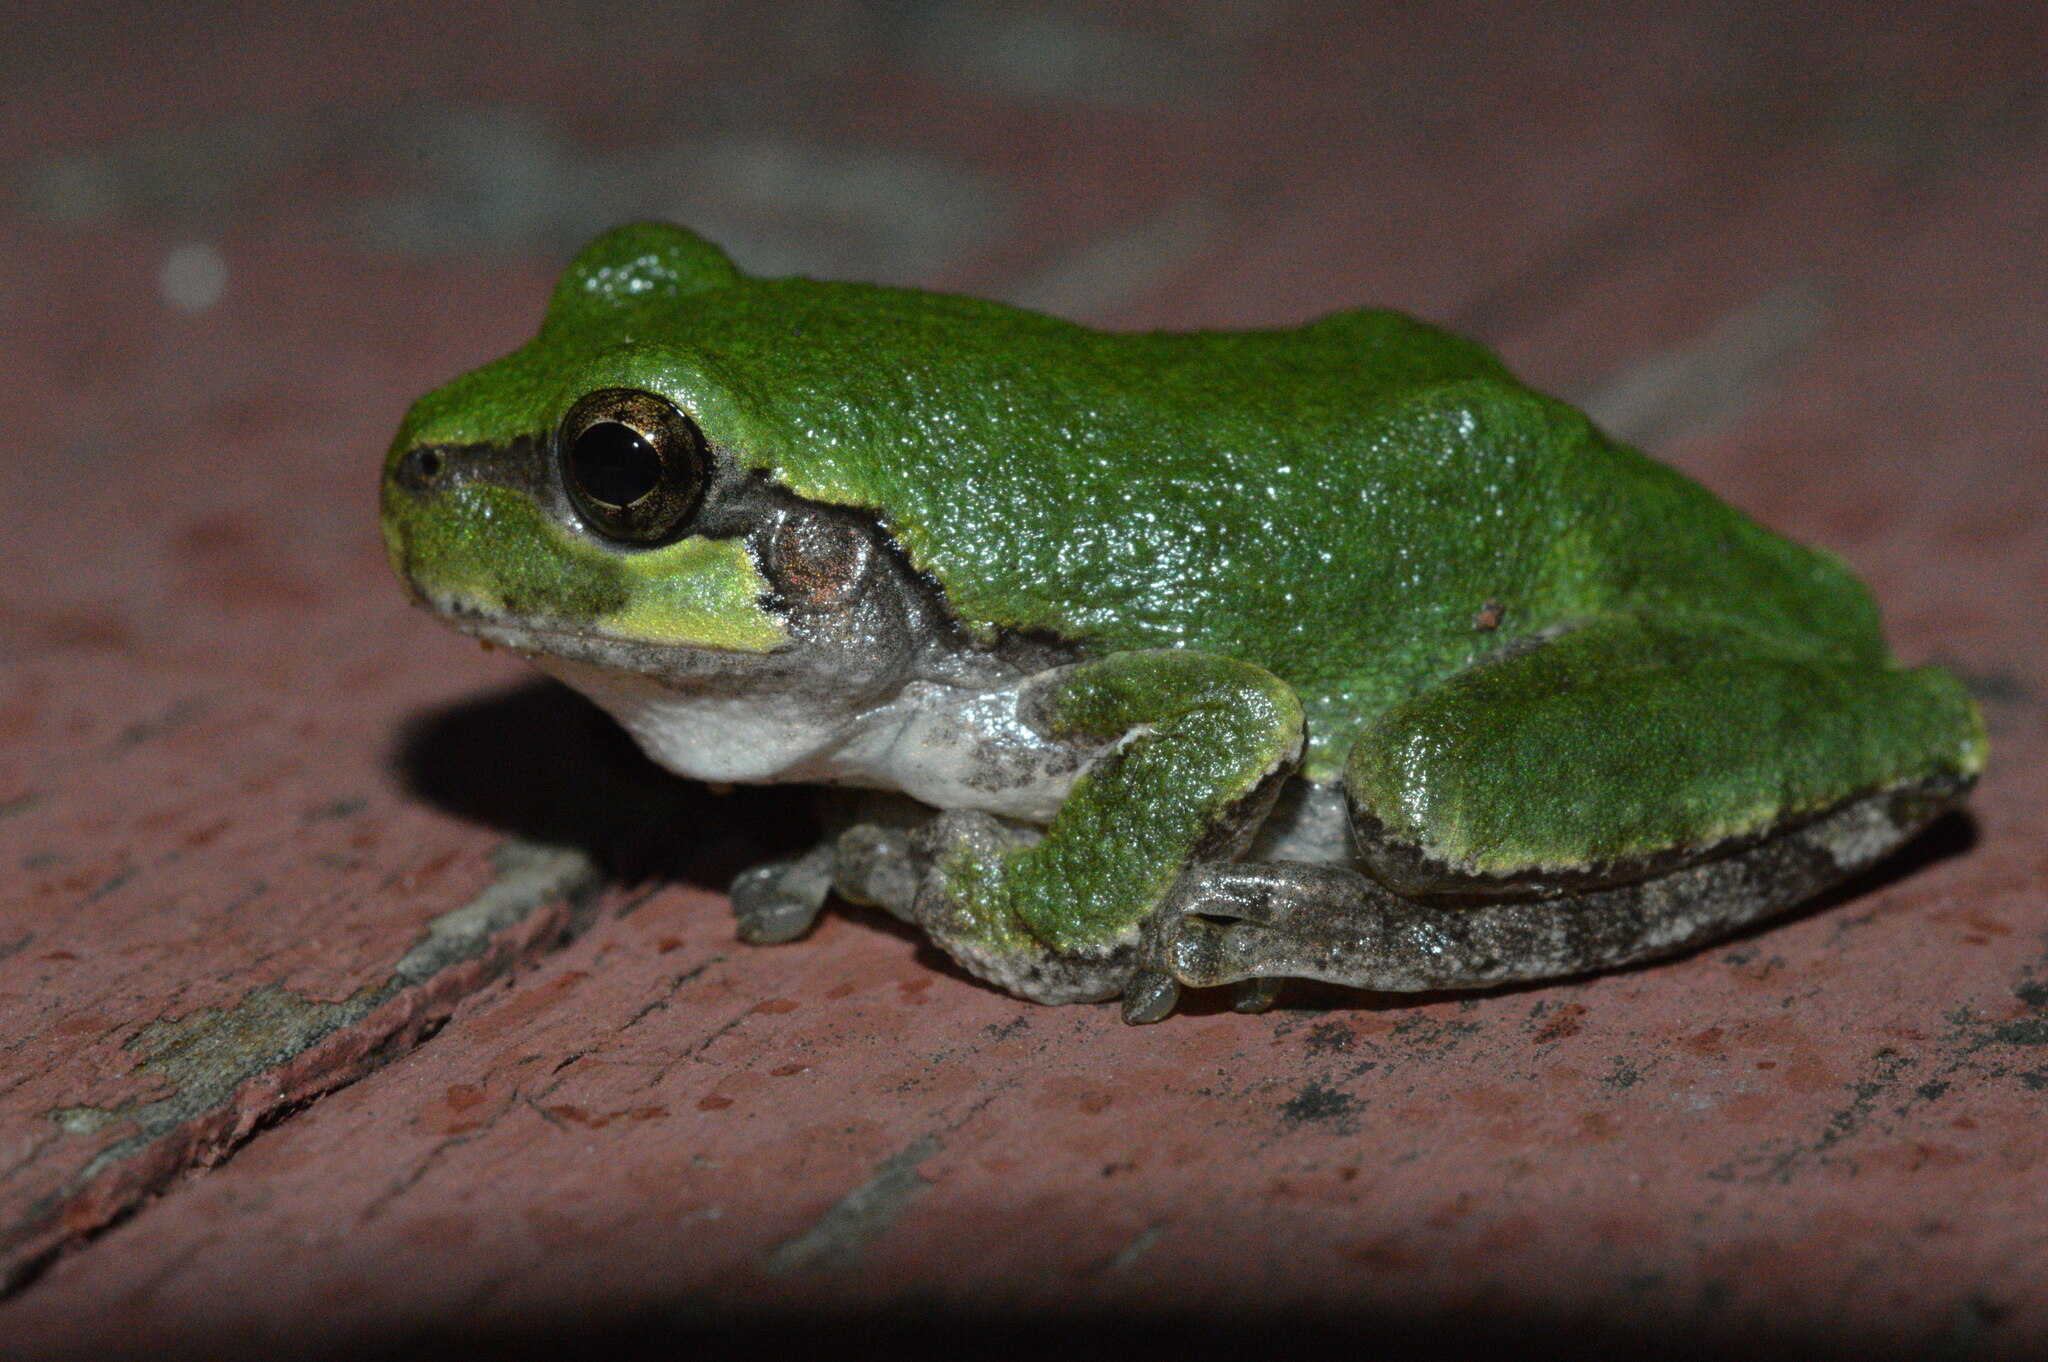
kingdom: Animalia
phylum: Chordata
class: Amphibia
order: Anura
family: Hylidae
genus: Dryophytes
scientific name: Dryophytes chrysoscelis
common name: Cope's gray treefrog
